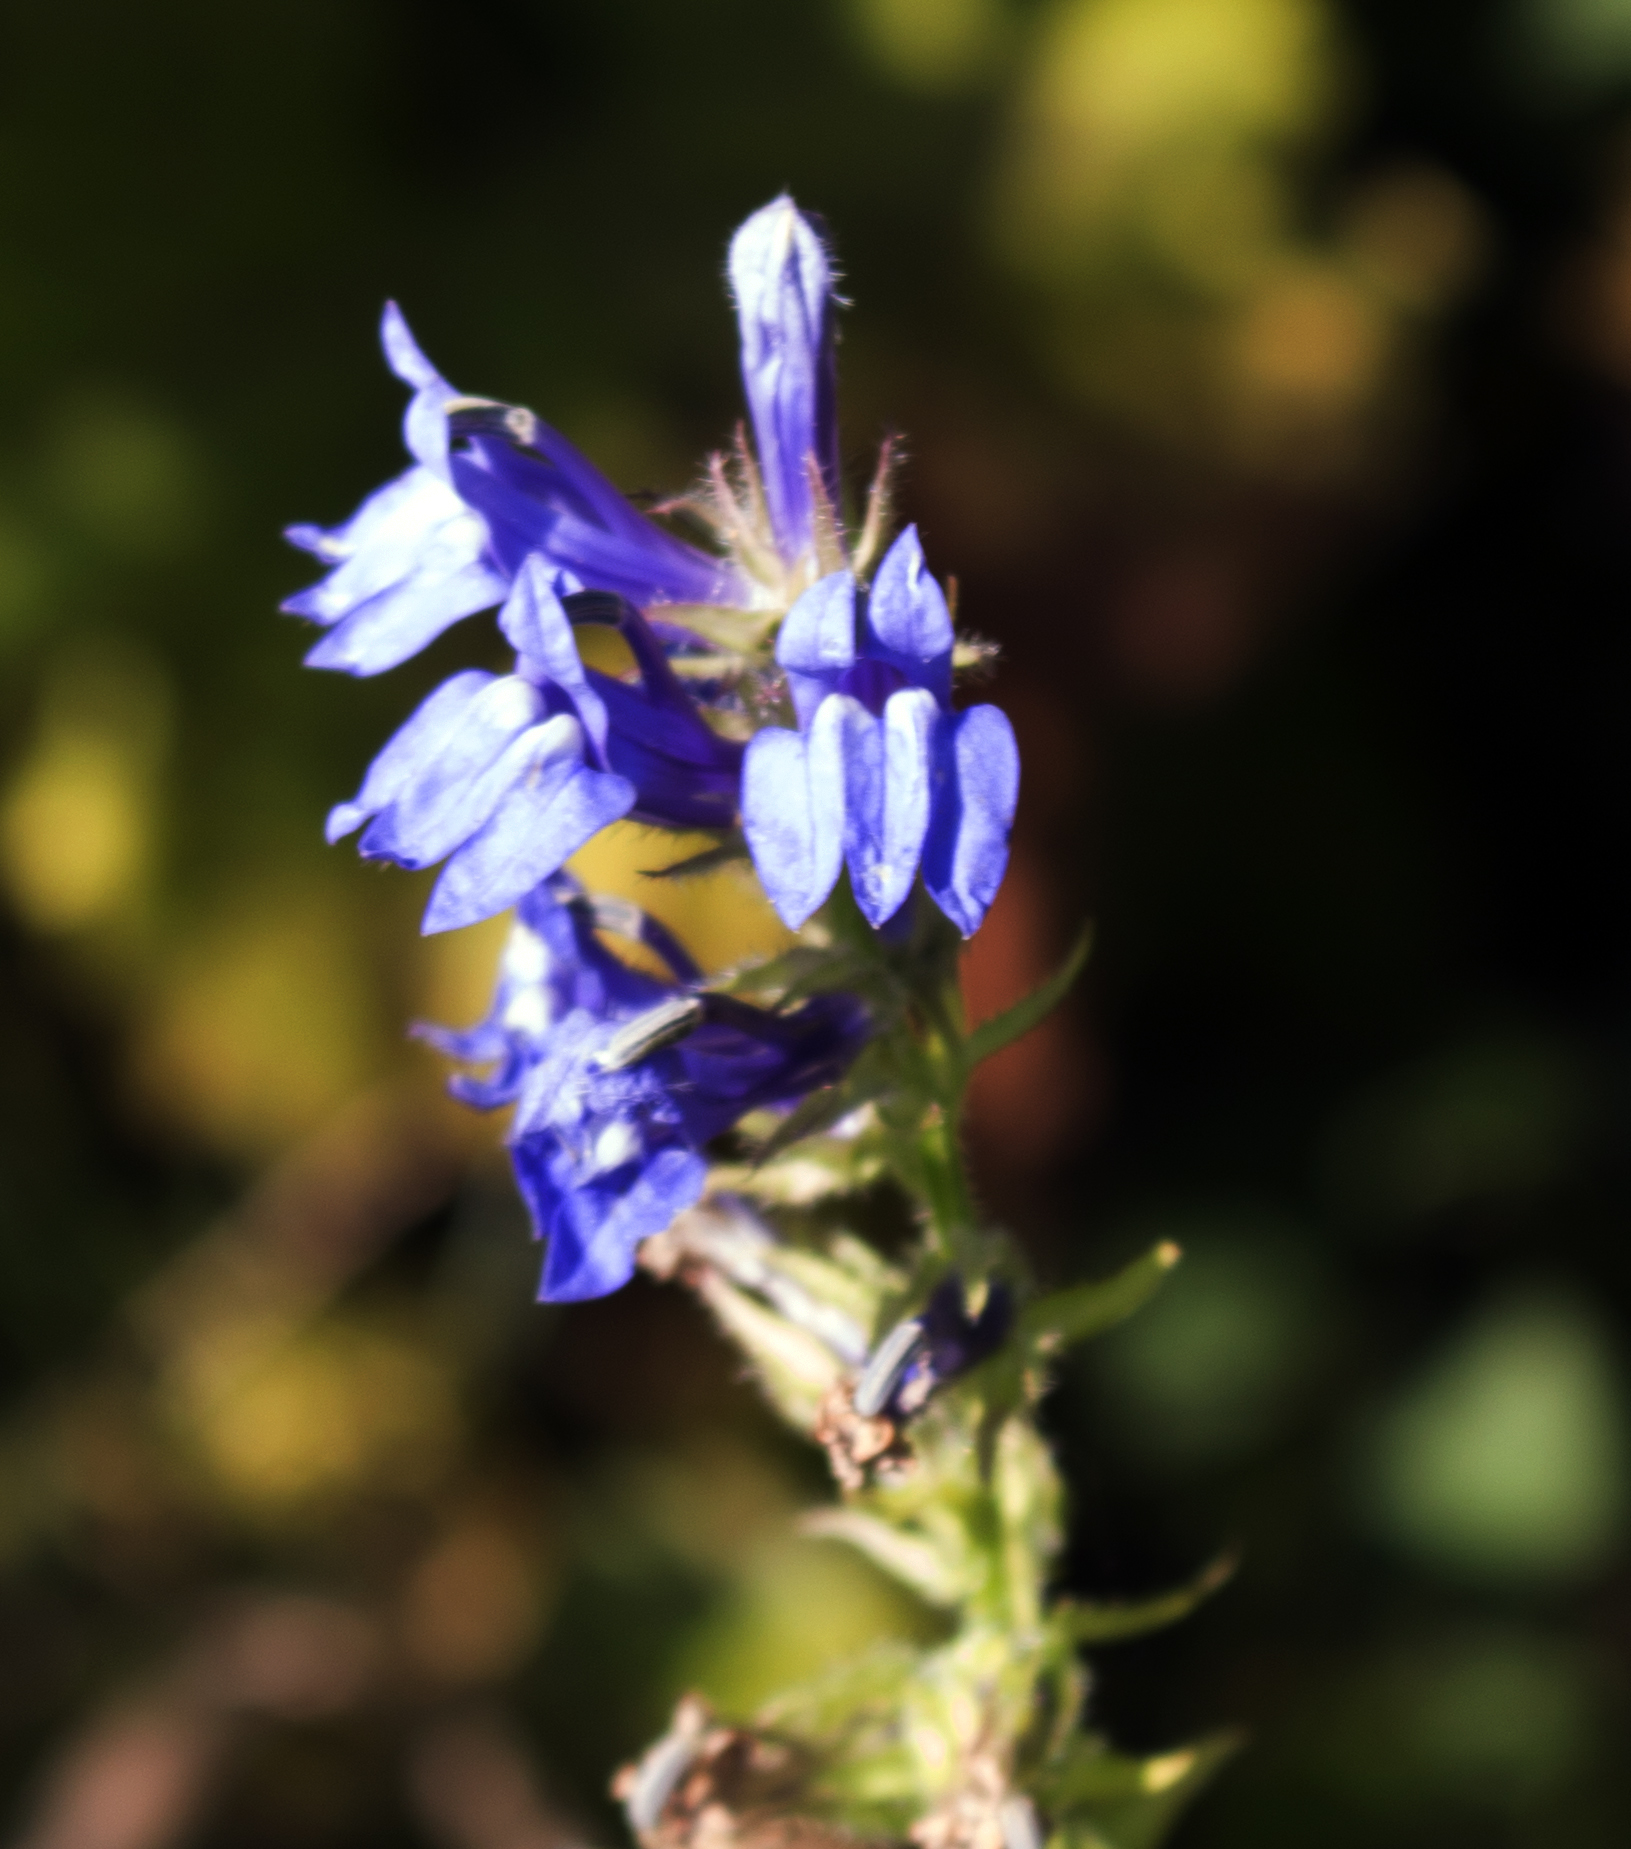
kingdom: Plantae
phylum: Tracheophyta
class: Magnoliopsida
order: Asterales
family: Campanulaceae
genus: Lobelia
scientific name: Lobelia siphilitica
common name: Great lobelia
